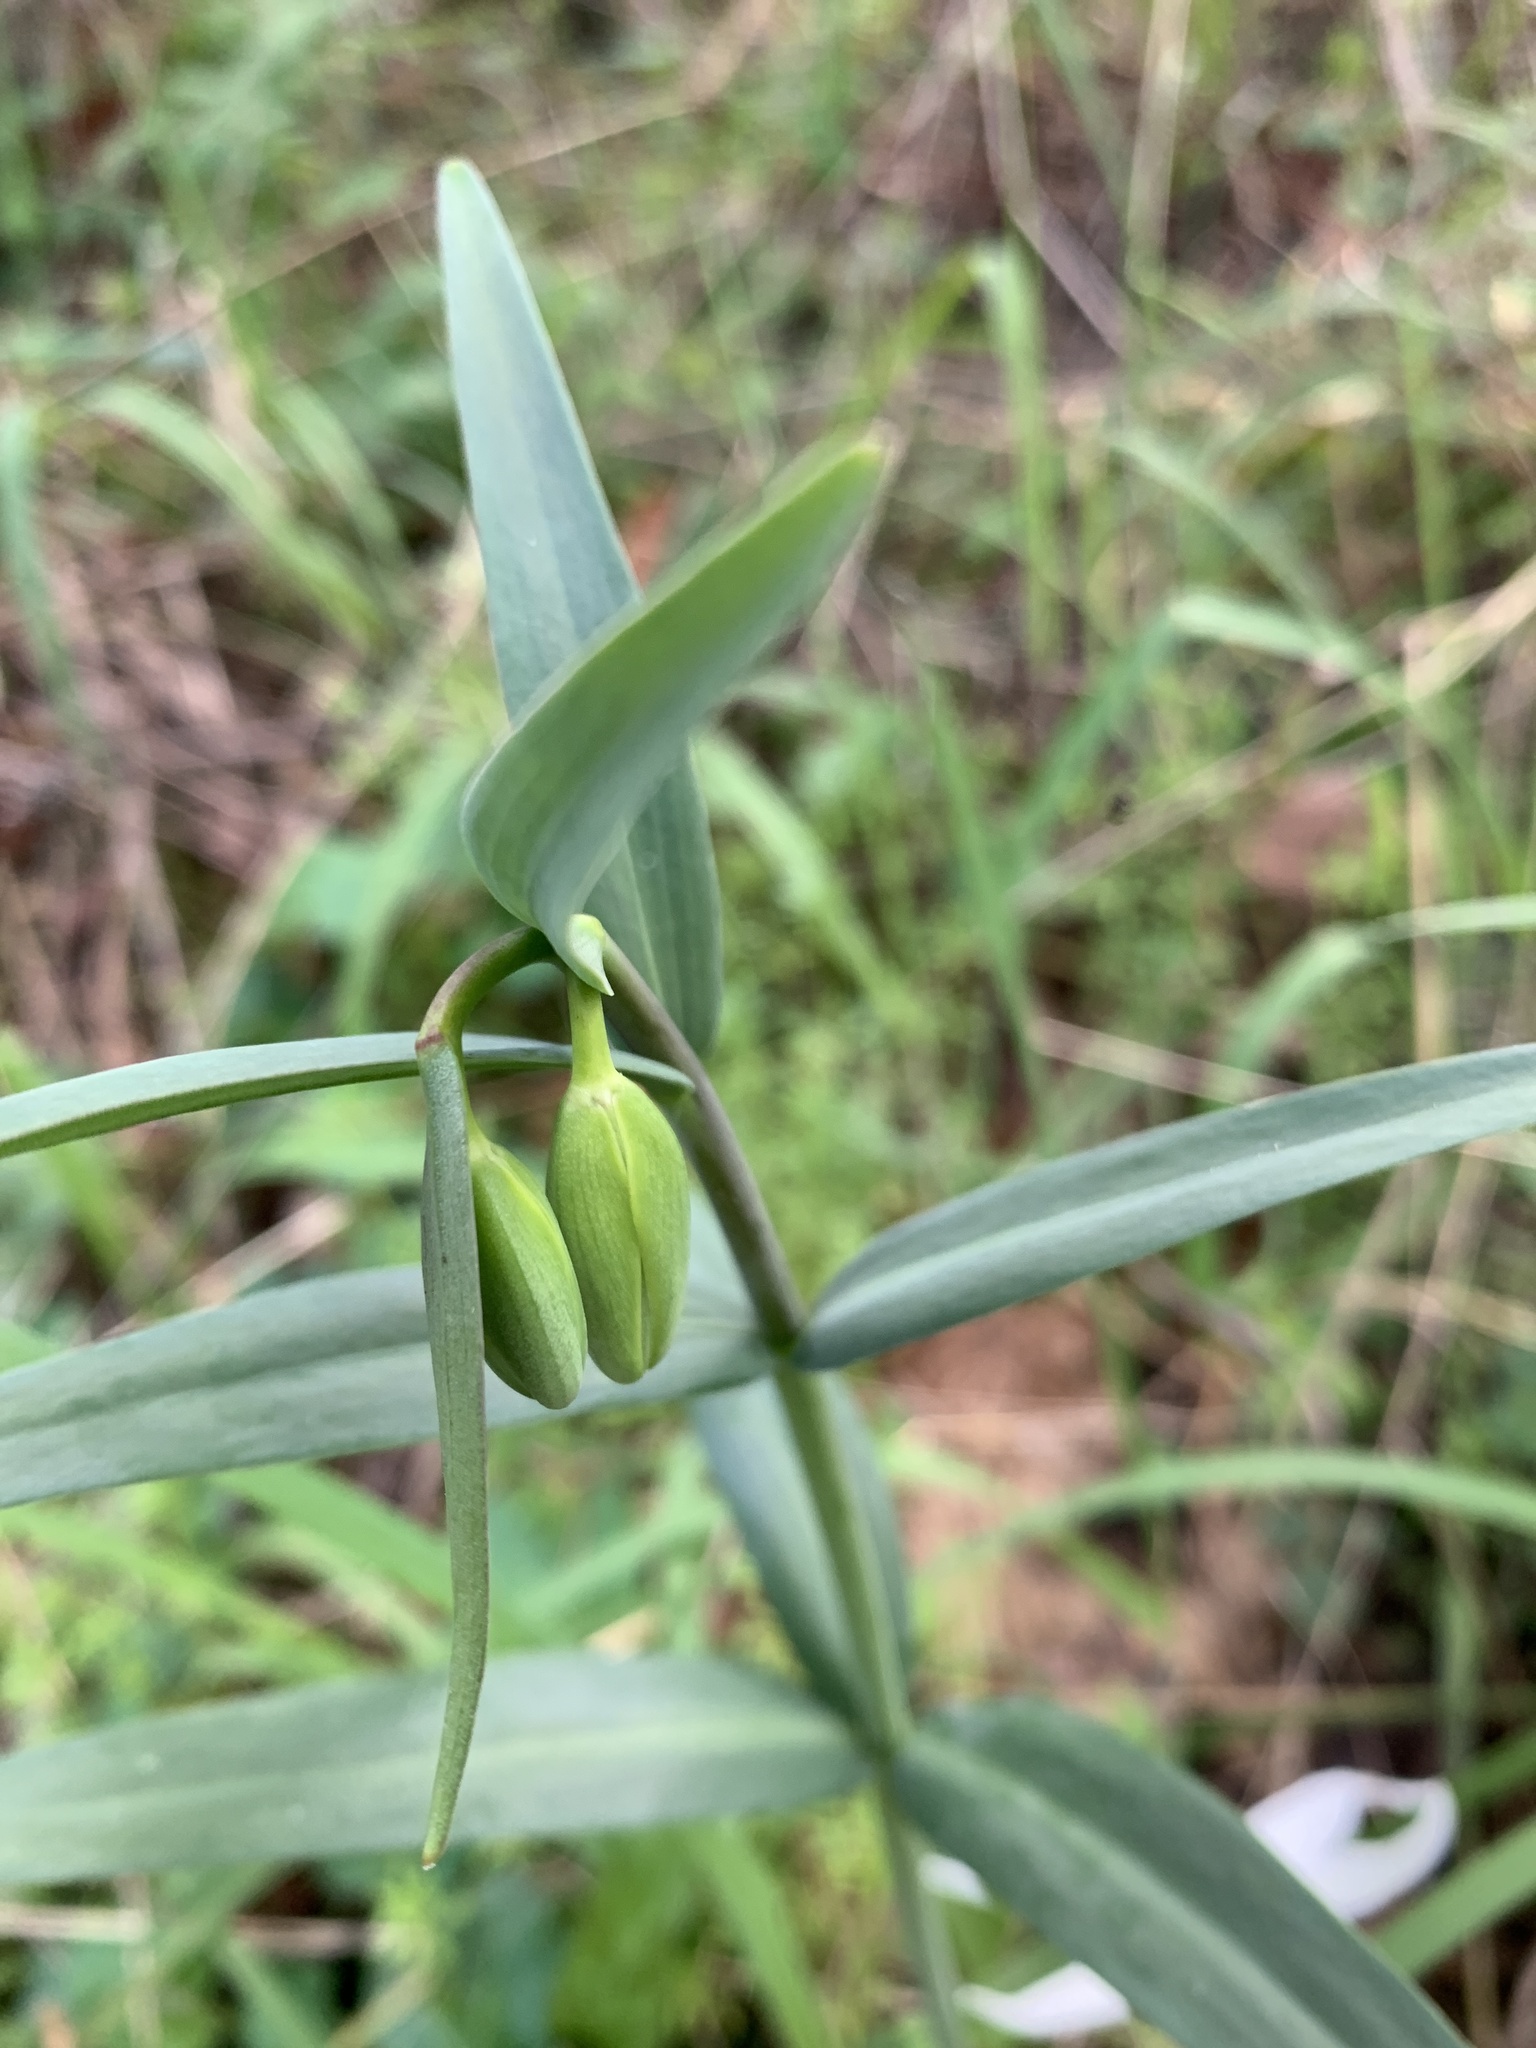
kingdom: Plantae
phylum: Tracheophyta
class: Liliopsida
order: Liliales
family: Liliaceae
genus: Fritillaria
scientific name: Fritillaria affinis
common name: Ojai fritillary
